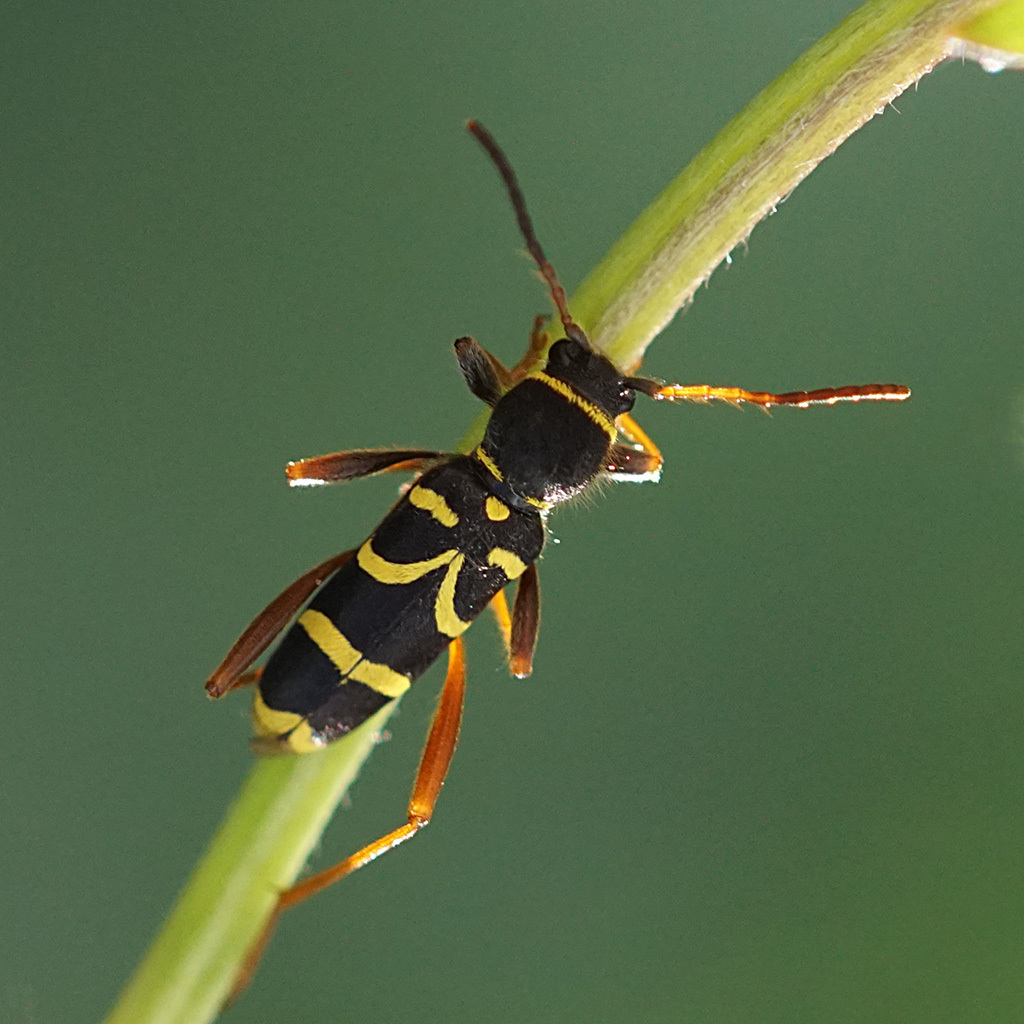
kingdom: Animalia
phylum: Arthropoda
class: Insecta
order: Coleoptera
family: Cerambycidae
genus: Clytus
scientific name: Clytus arietis
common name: Wasp beetle
